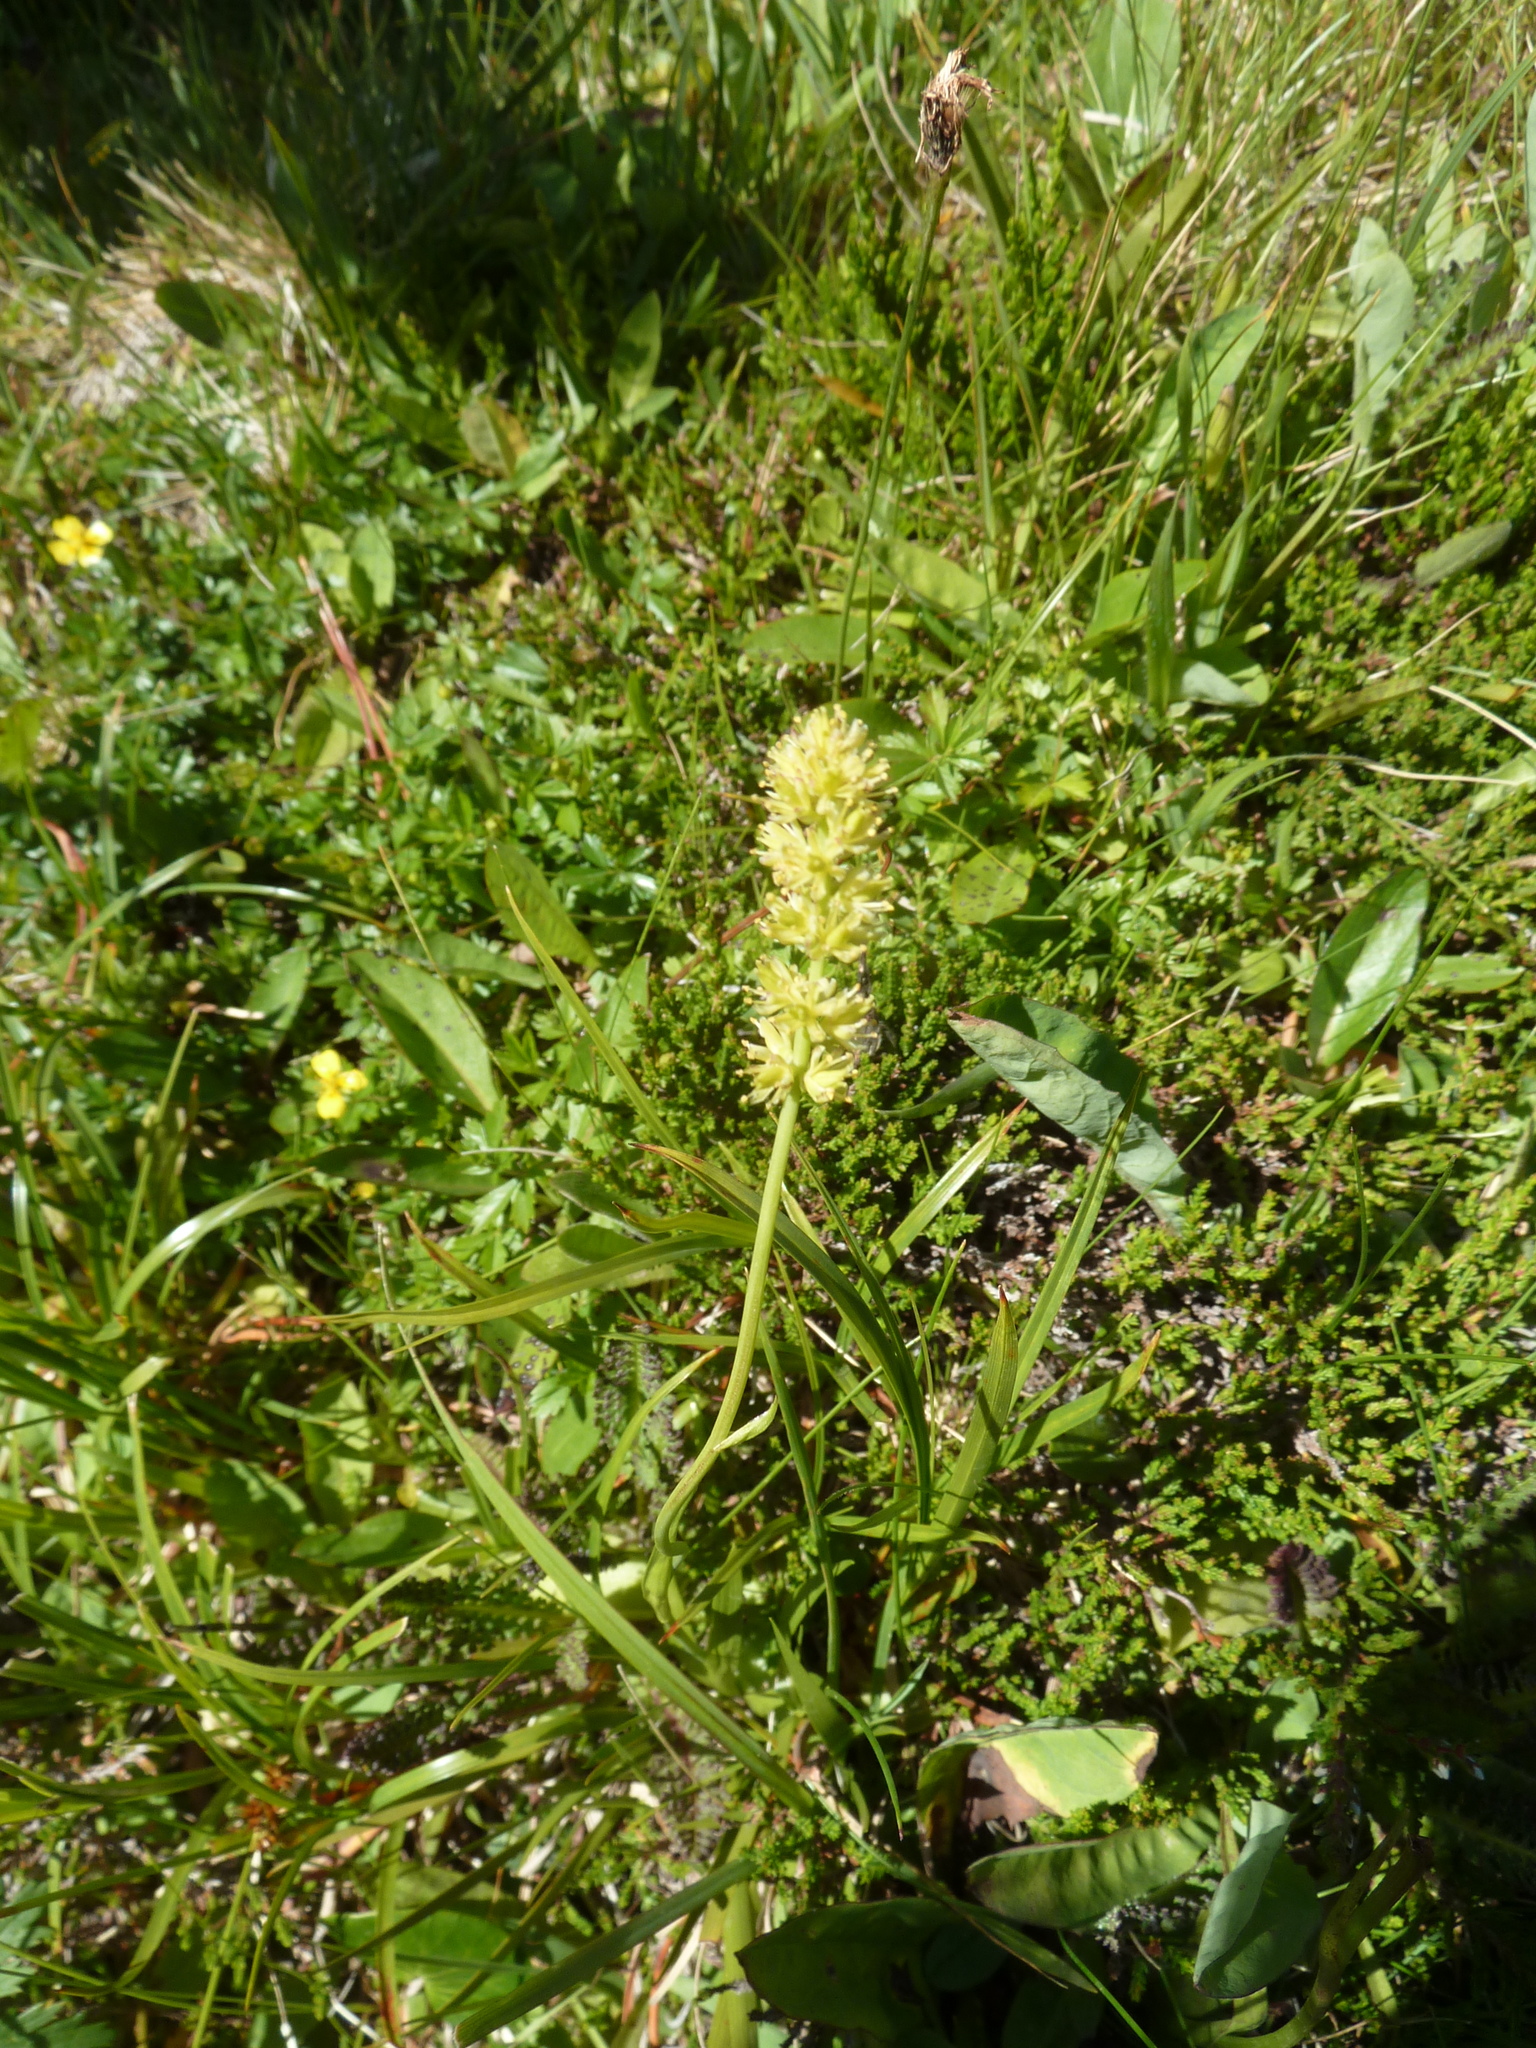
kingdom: Plantae
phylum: Tracheophyta
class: Liliopsida
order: Alismatales
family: Tofieldiaceae
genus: Tofieldia
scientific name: Tofieldia calyculata
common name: German-asphodel
